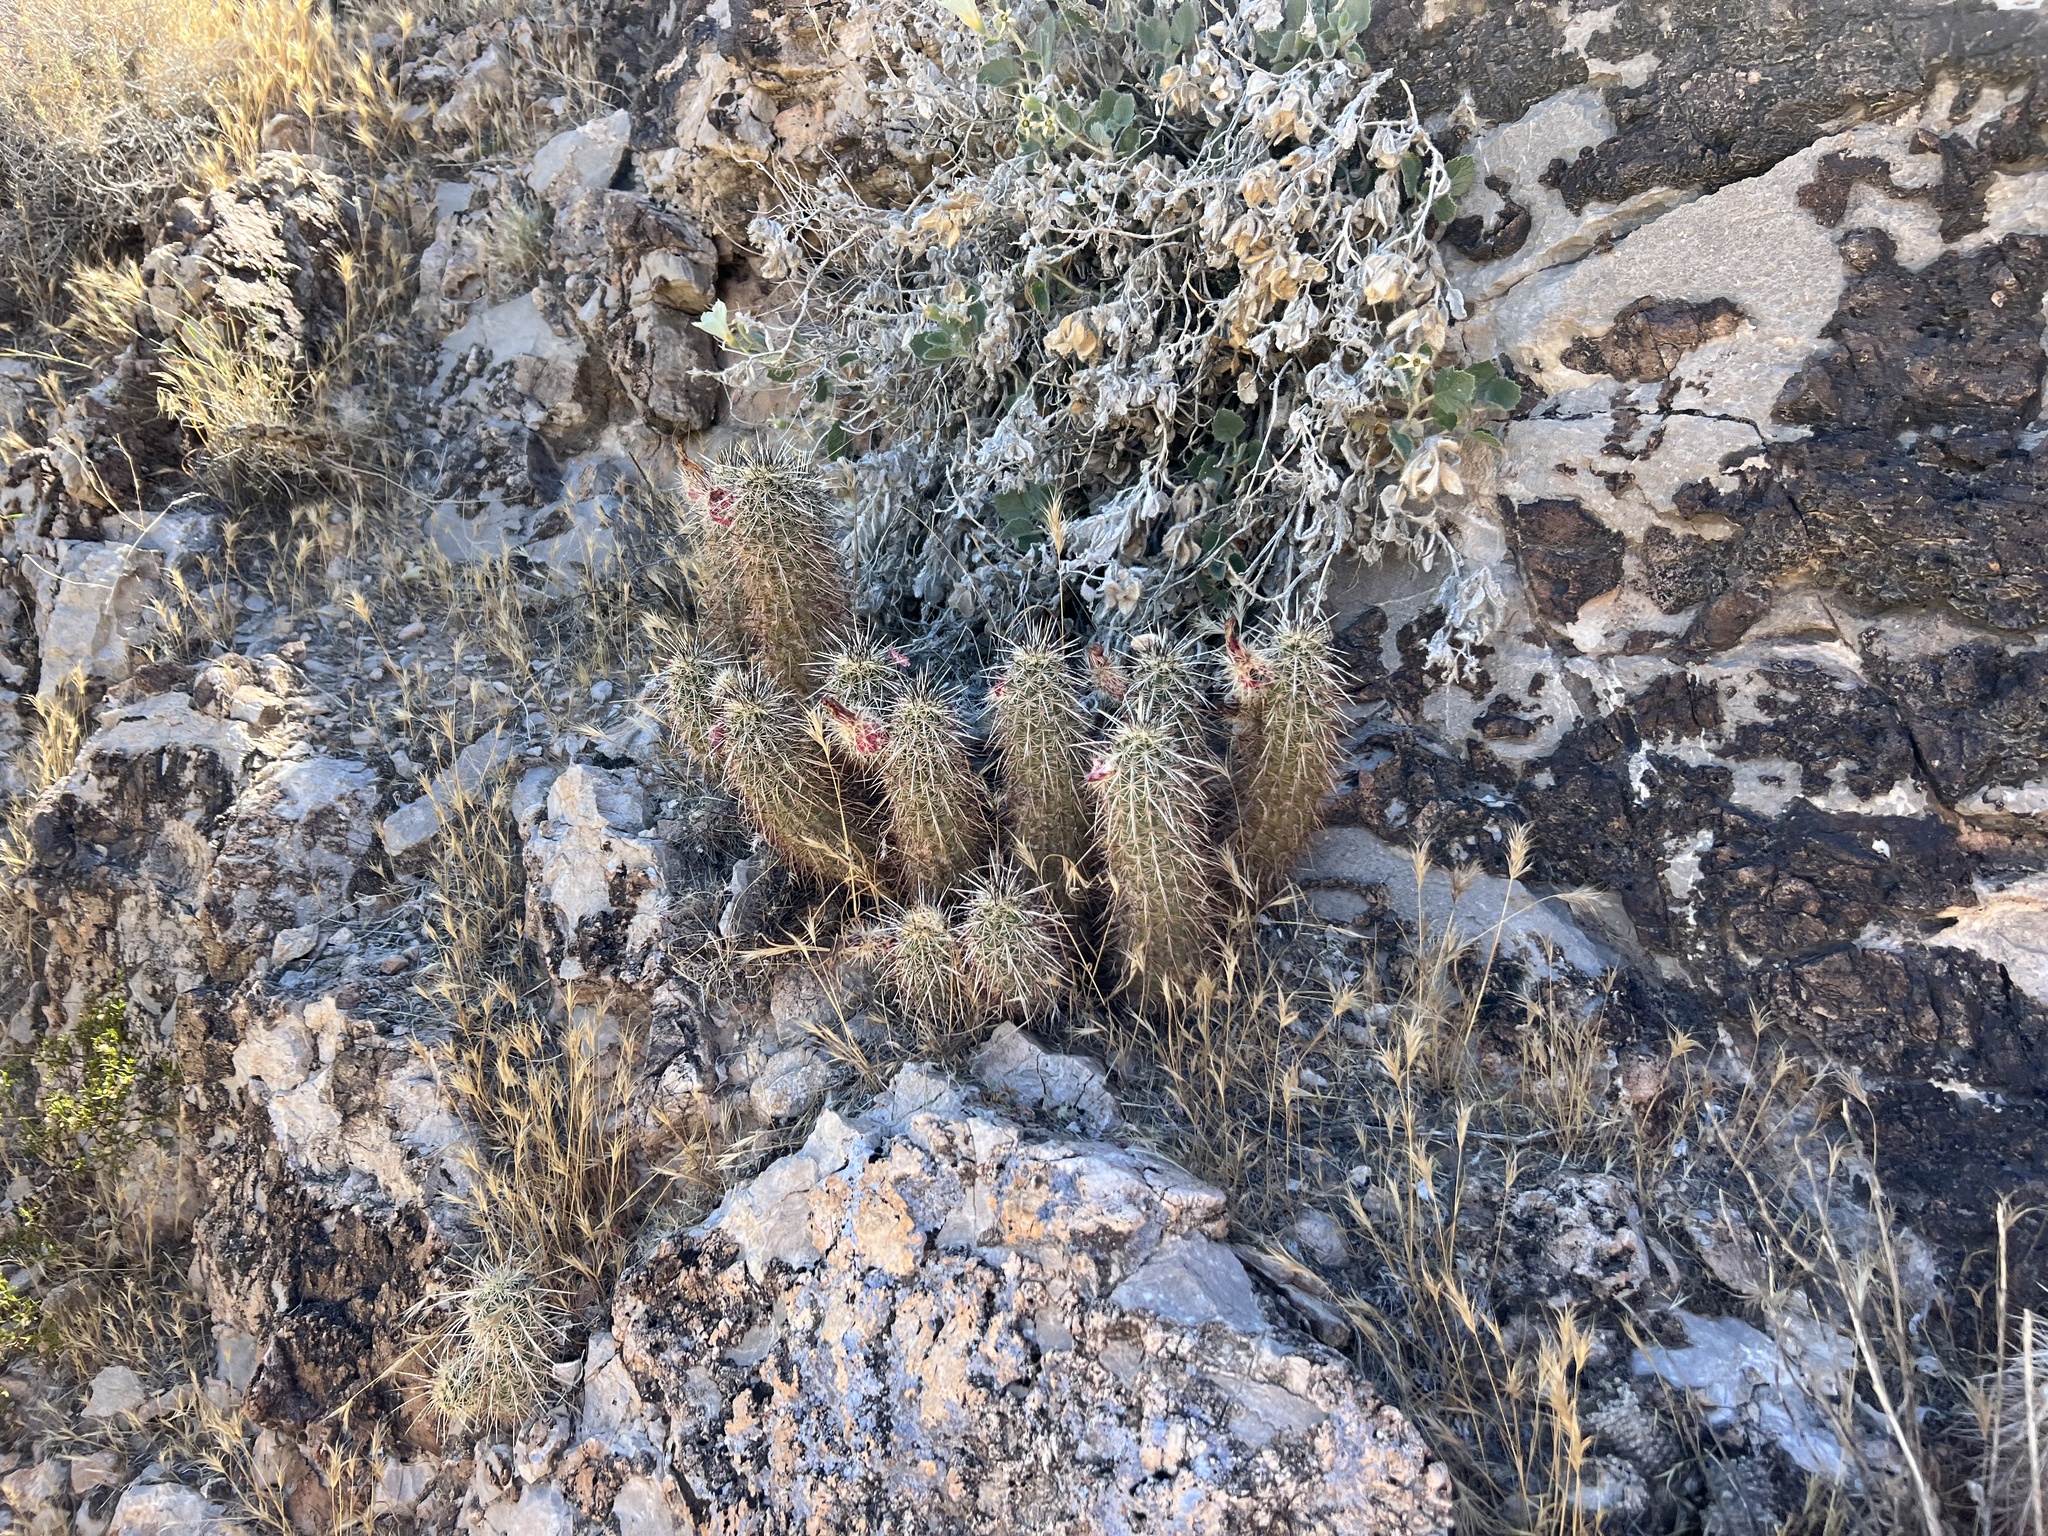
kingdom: Plantae
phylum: Tracheophyta
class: Magnoliopsida
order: Caryophyllales
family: Cactaceae
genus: Echinocereus
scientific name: Echinocereus engelmannii
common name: Engelmann's hedgehog cactus
